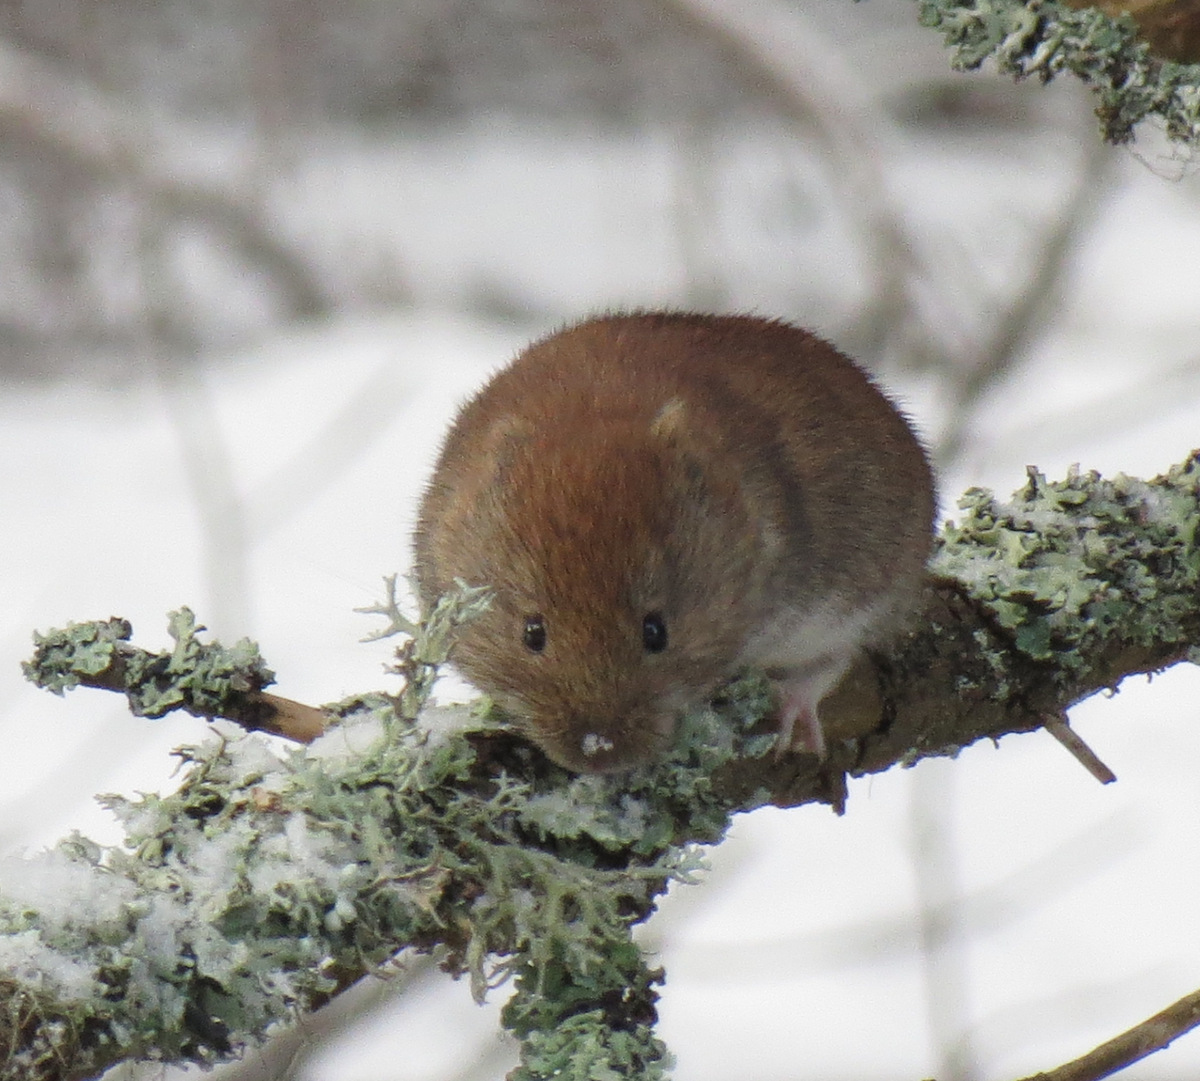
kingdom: Animalia
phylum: Chordata
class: Mammalia
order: Rodentia
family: Cricetidae
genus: Myodes
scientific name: Myodes glareolus
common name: Bank vole
